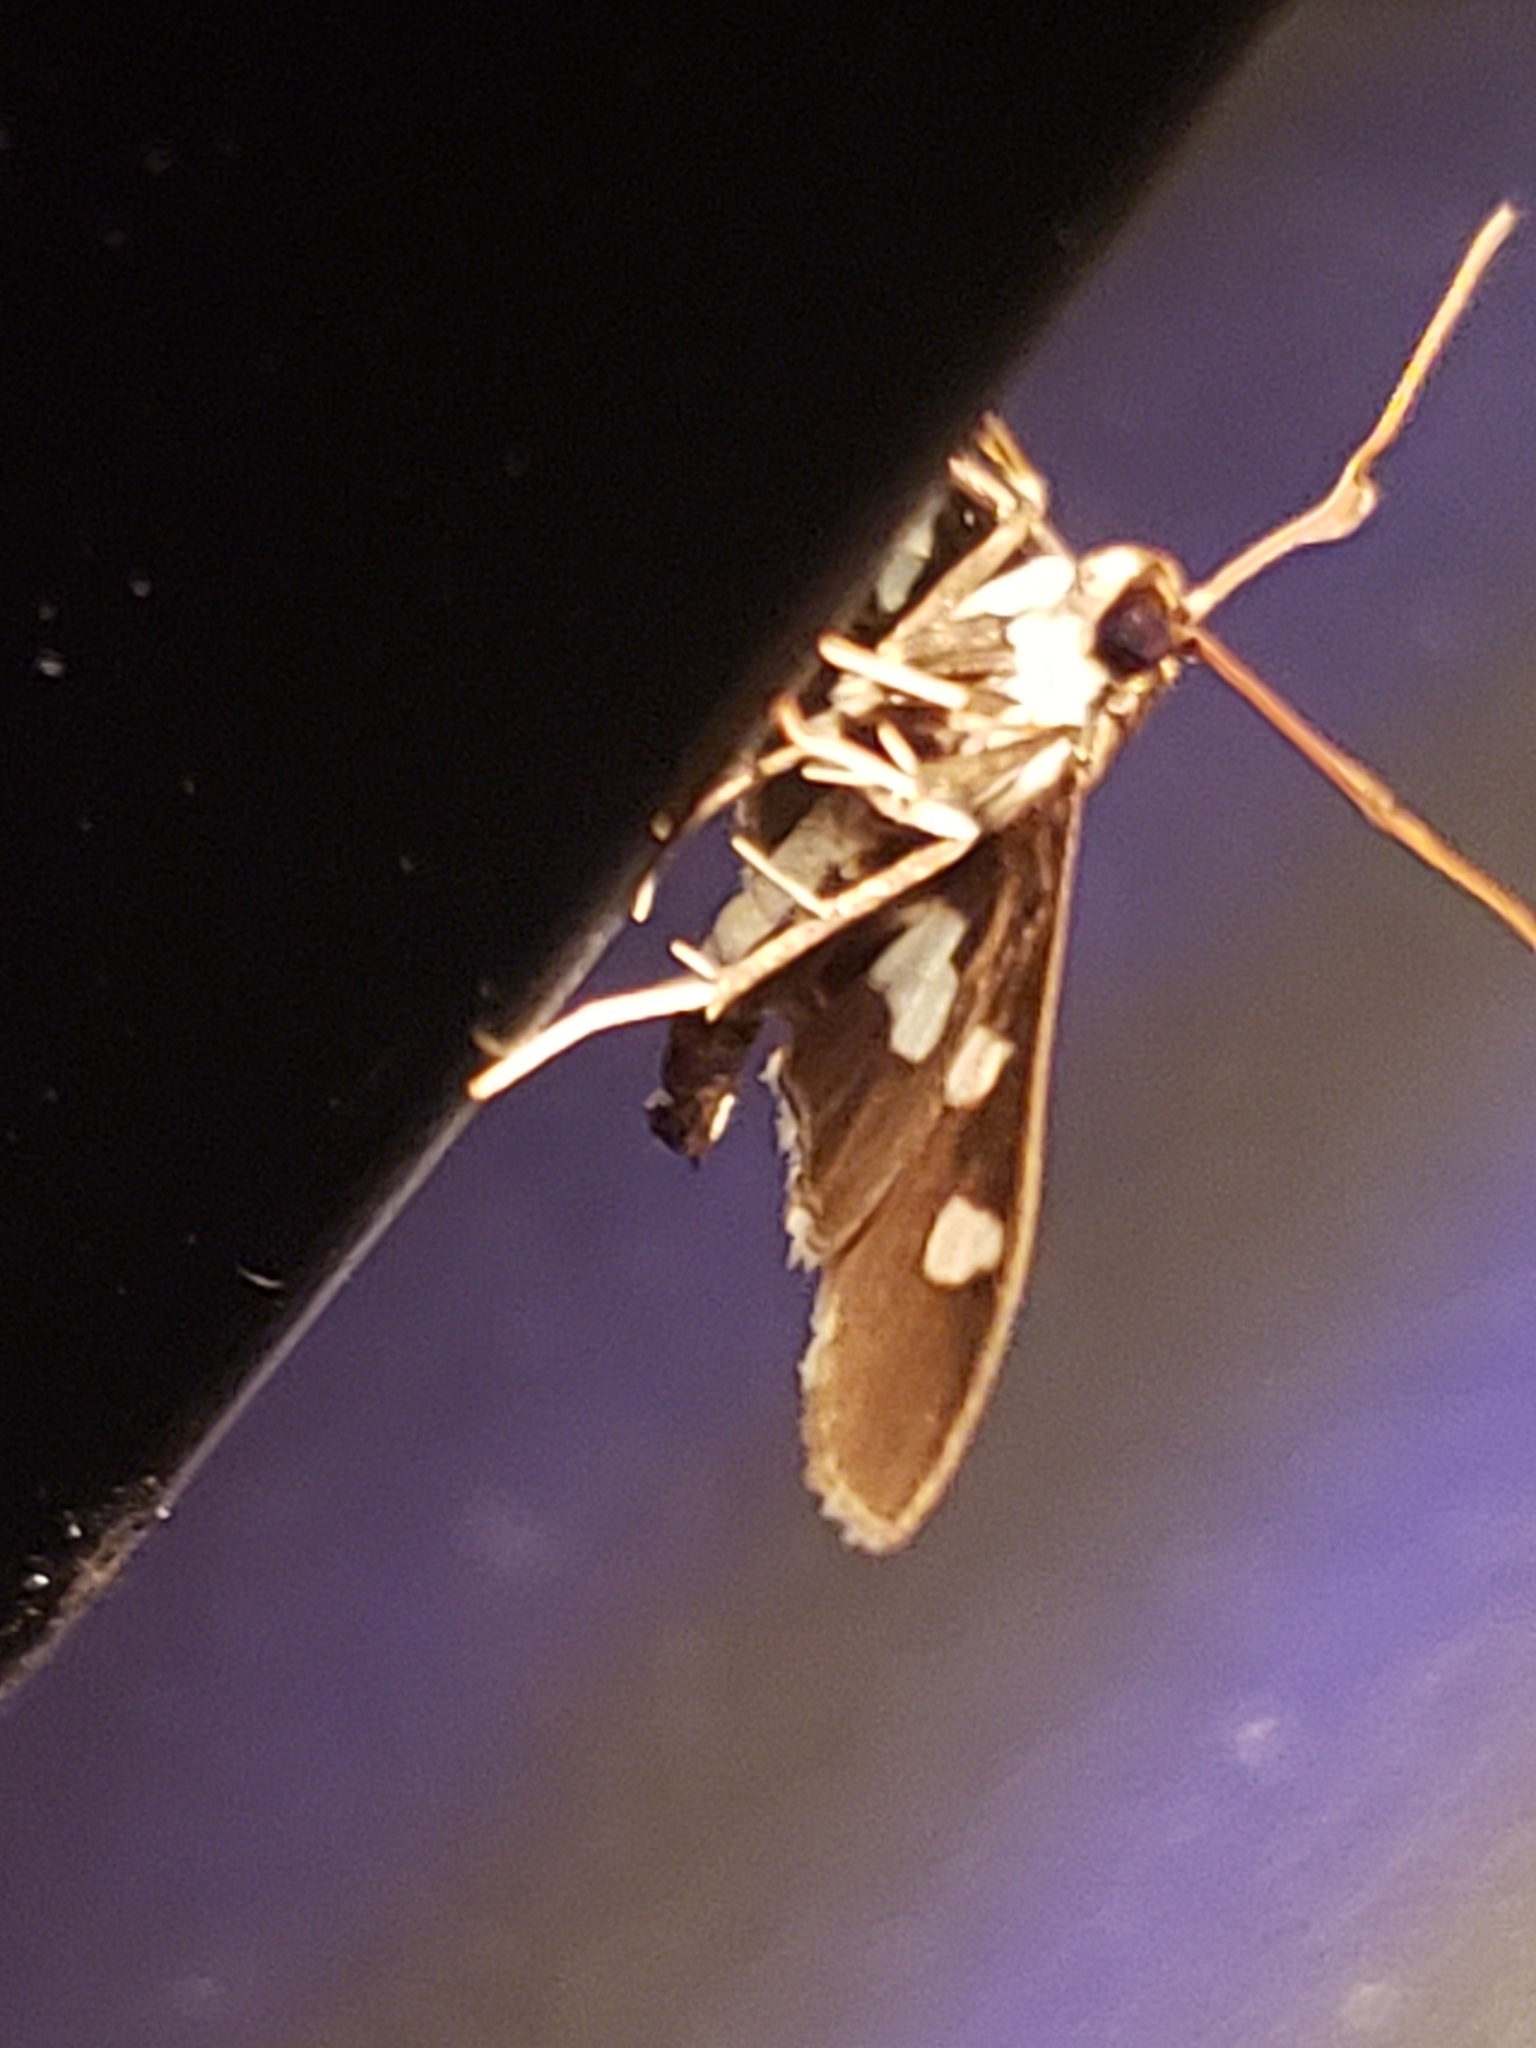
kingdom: Animalia
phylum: Arthropoda
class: Insecta
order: Lepidoptera
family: Crambidae
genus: Desmia
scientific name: Desmia funeralis
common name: Grape leaf folder moth
